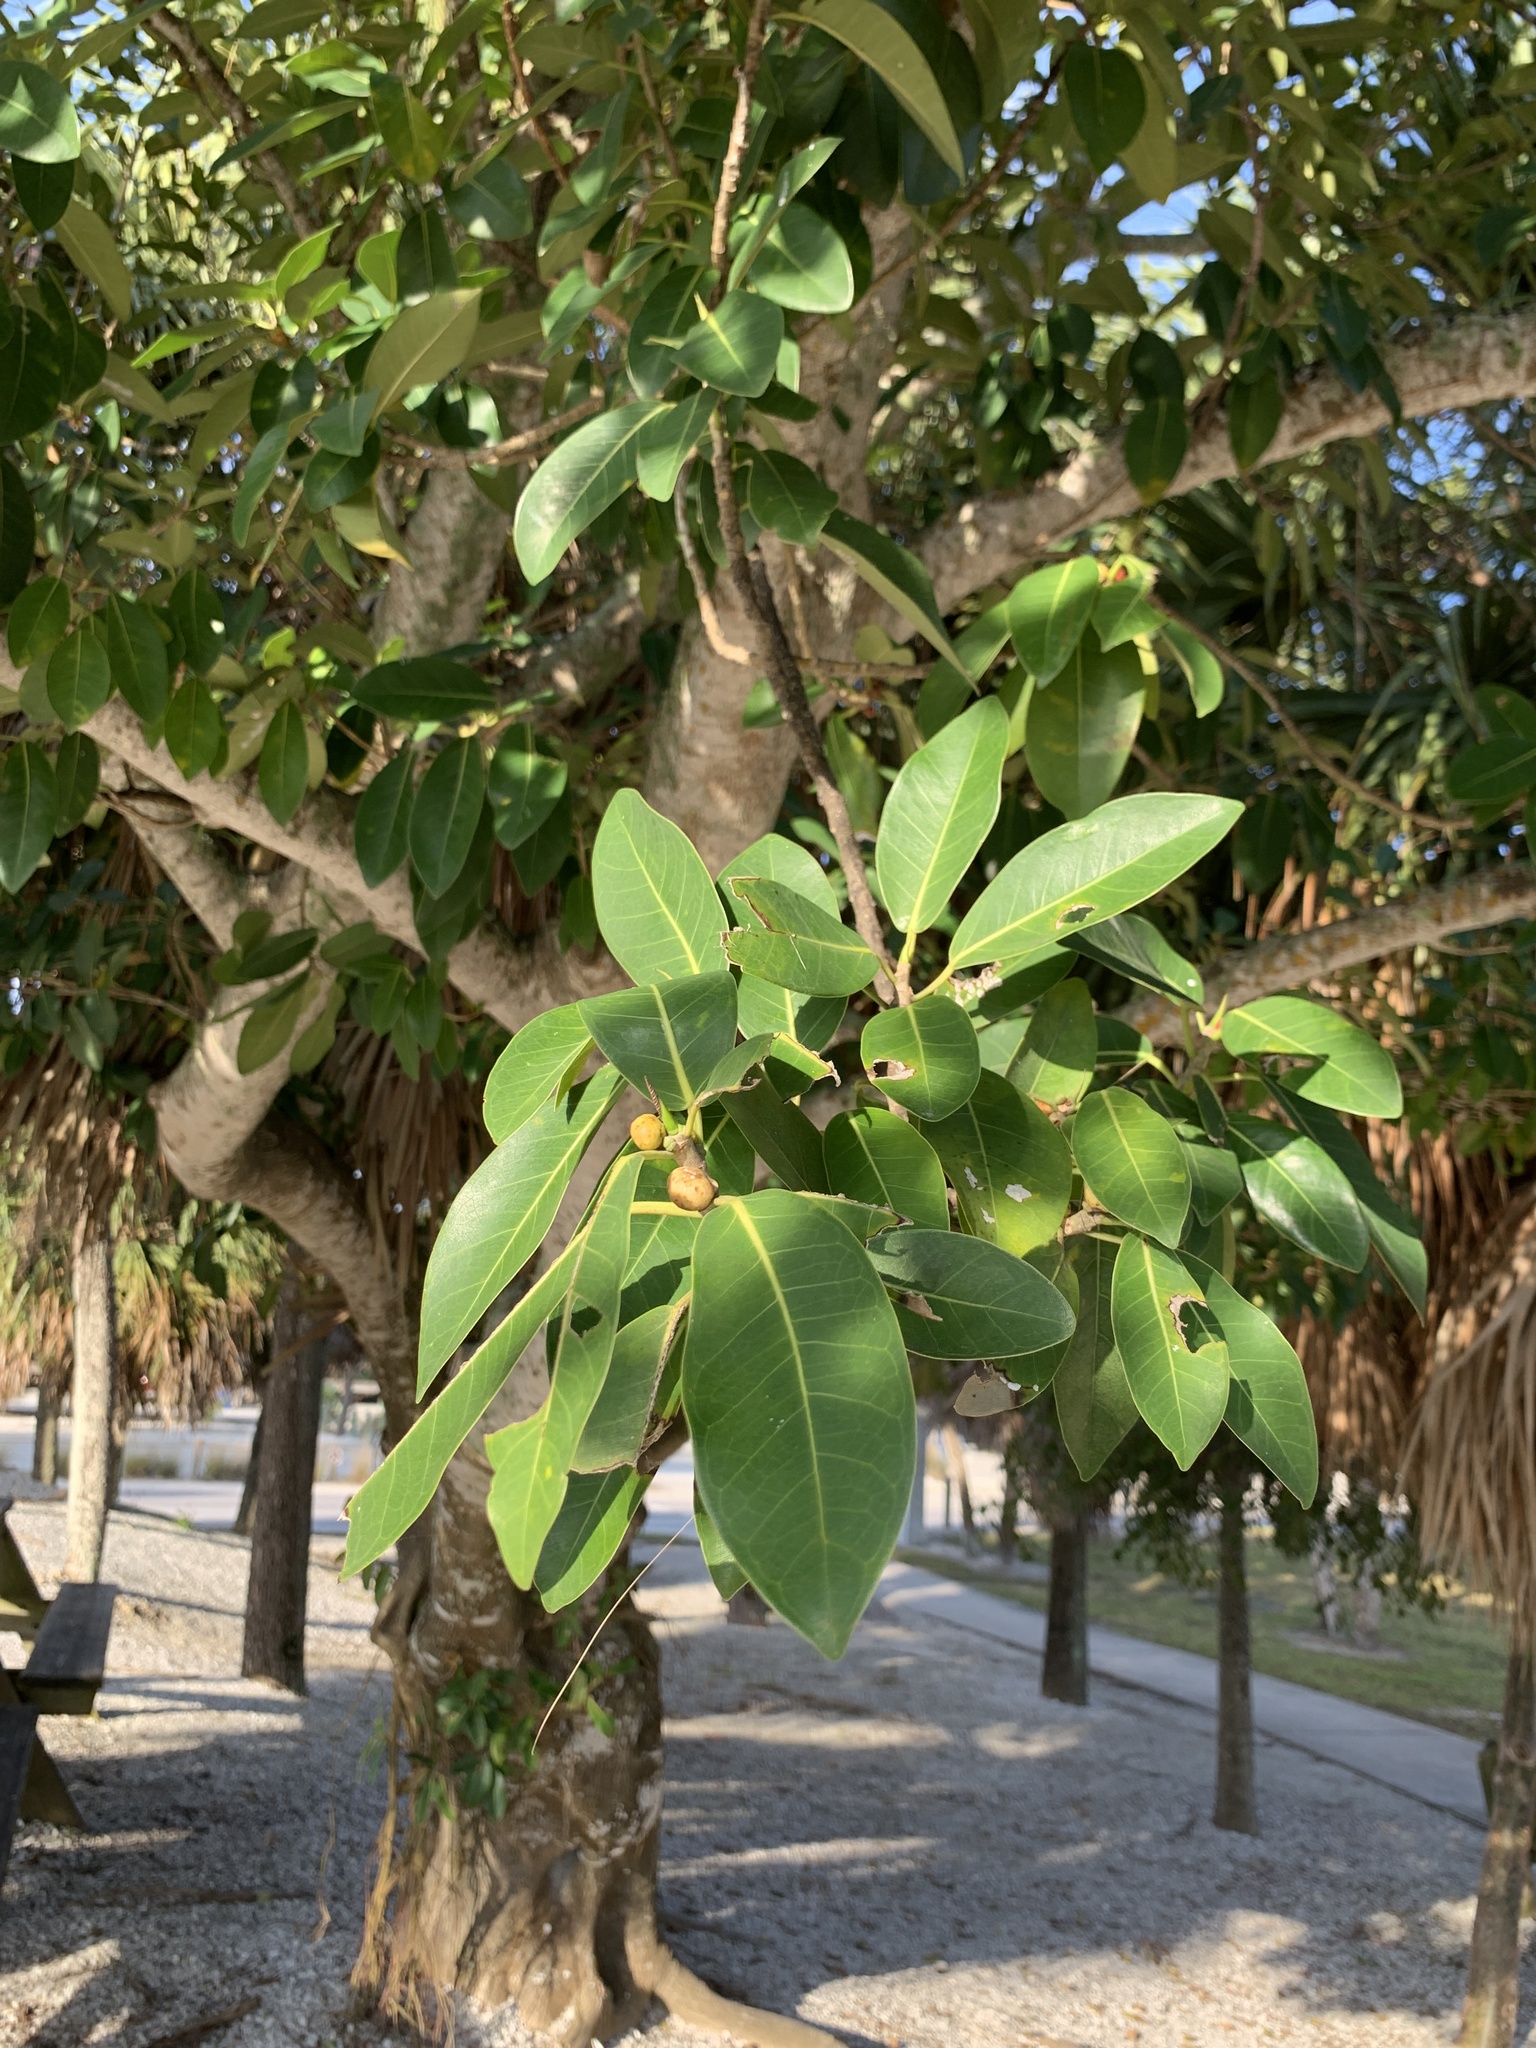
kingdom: Plantae
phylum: Tracheophyta
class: Magnoliopsida
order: Rosales
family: Moraceae
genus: Ficus
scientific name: Ficus aurea
